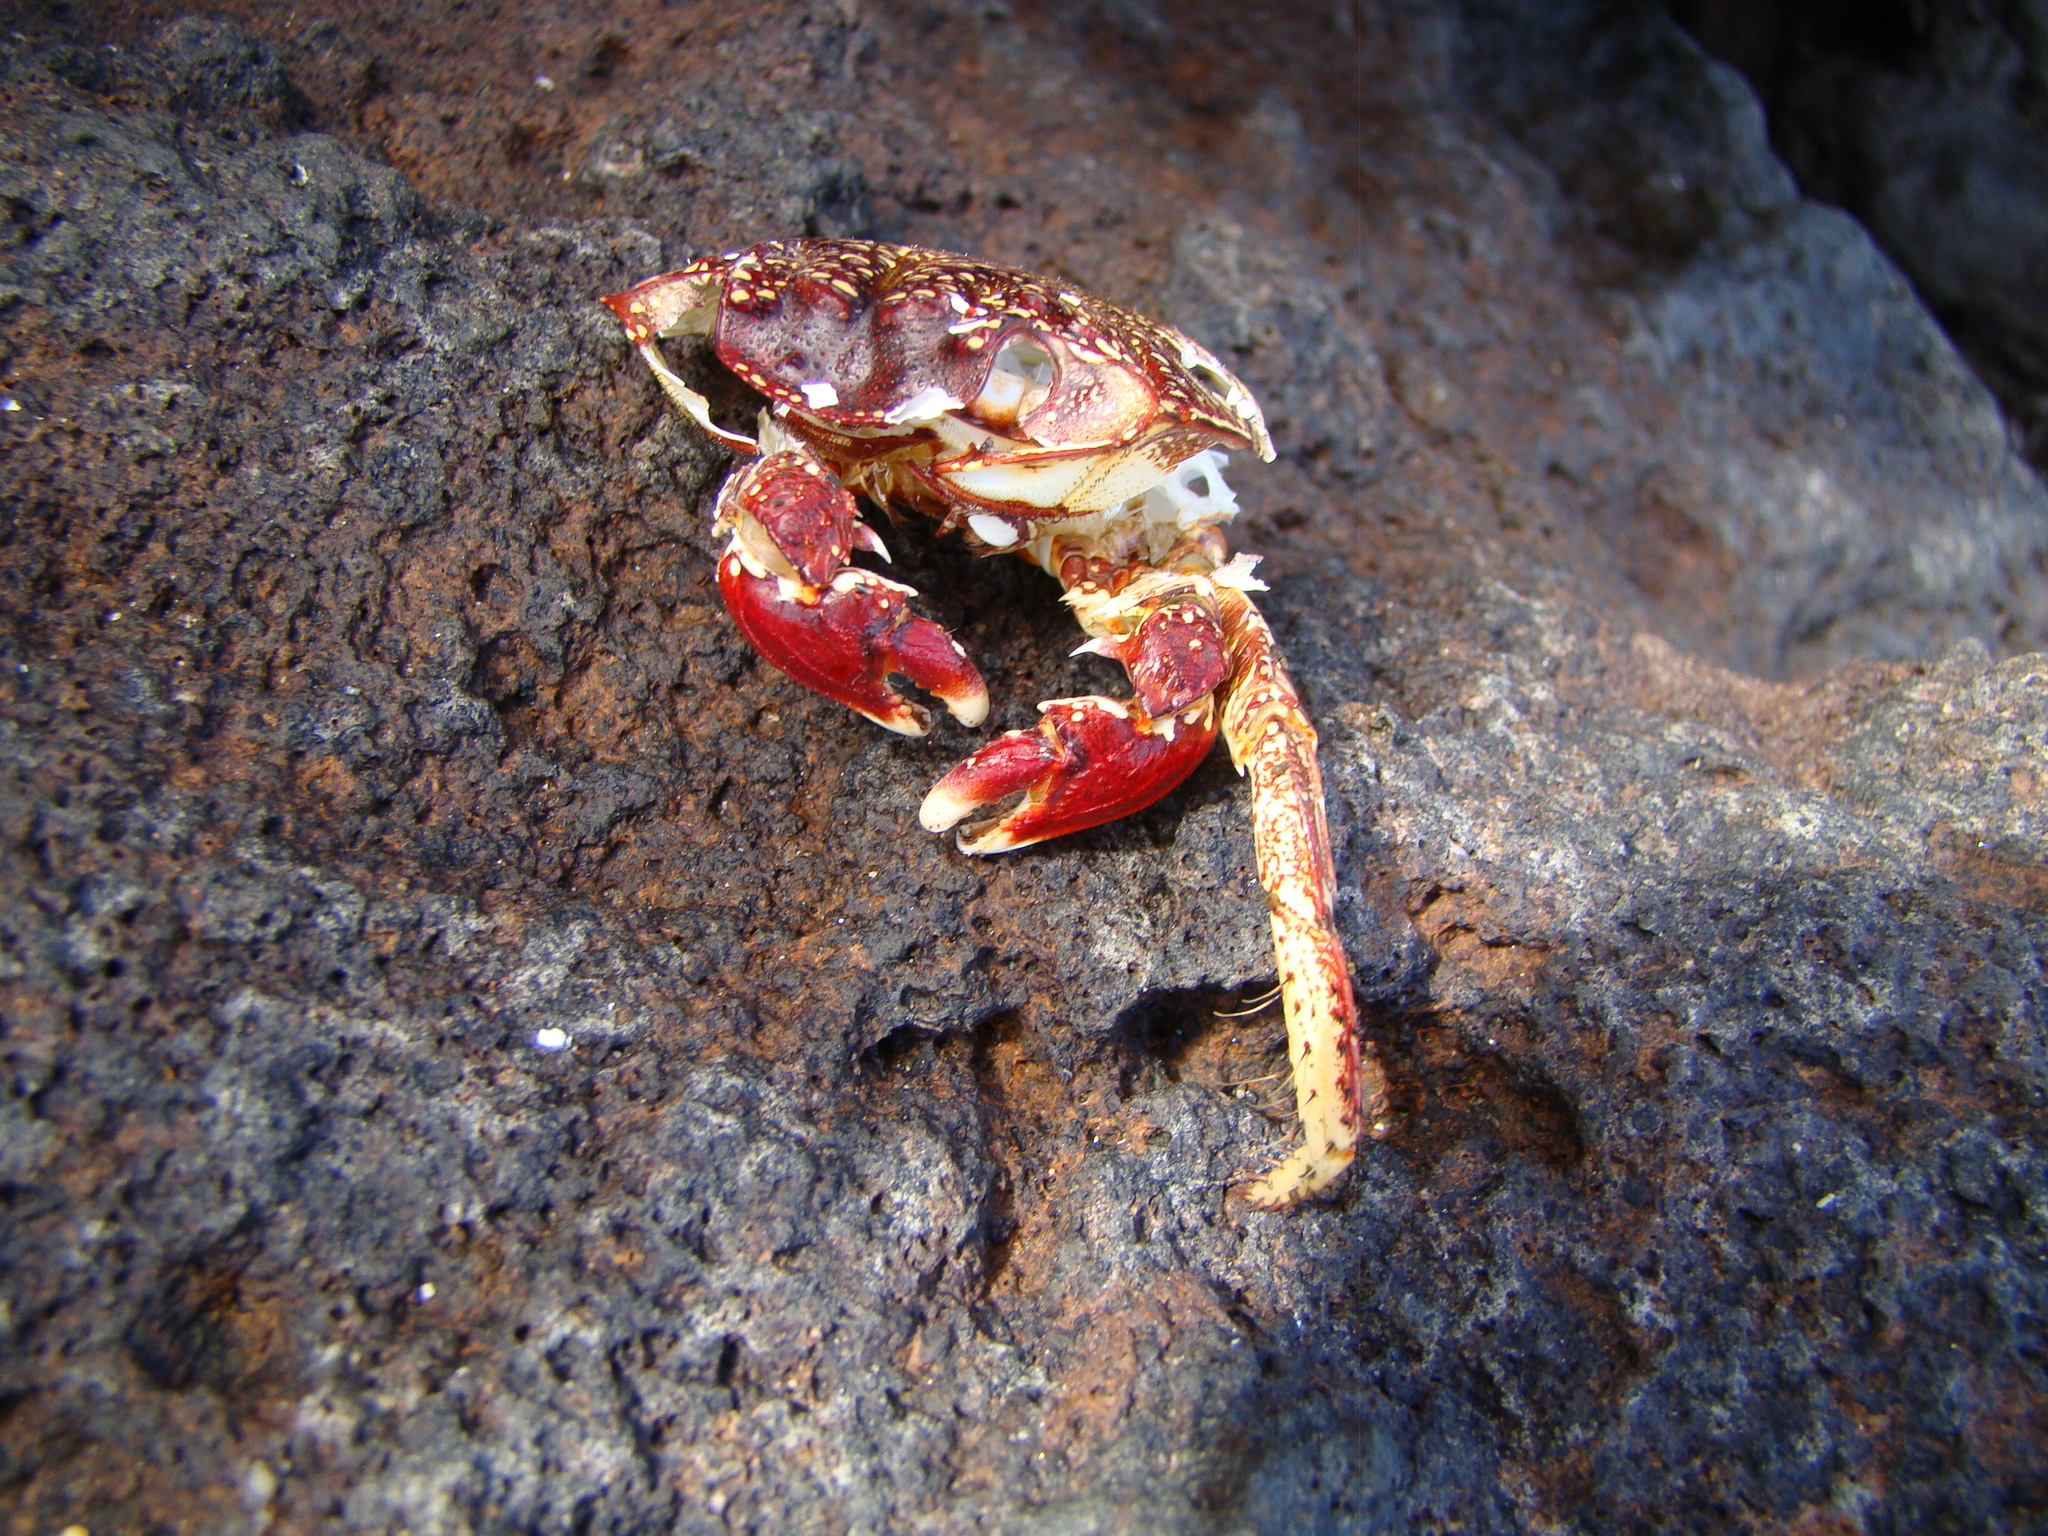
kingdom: Animalia
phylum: Arthropoda
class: Malacostraca
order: Decapoda
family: Grapsidae
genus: Grapsus
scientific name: Grapsus tenuicrustatus
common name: Natal lightfoot crab
